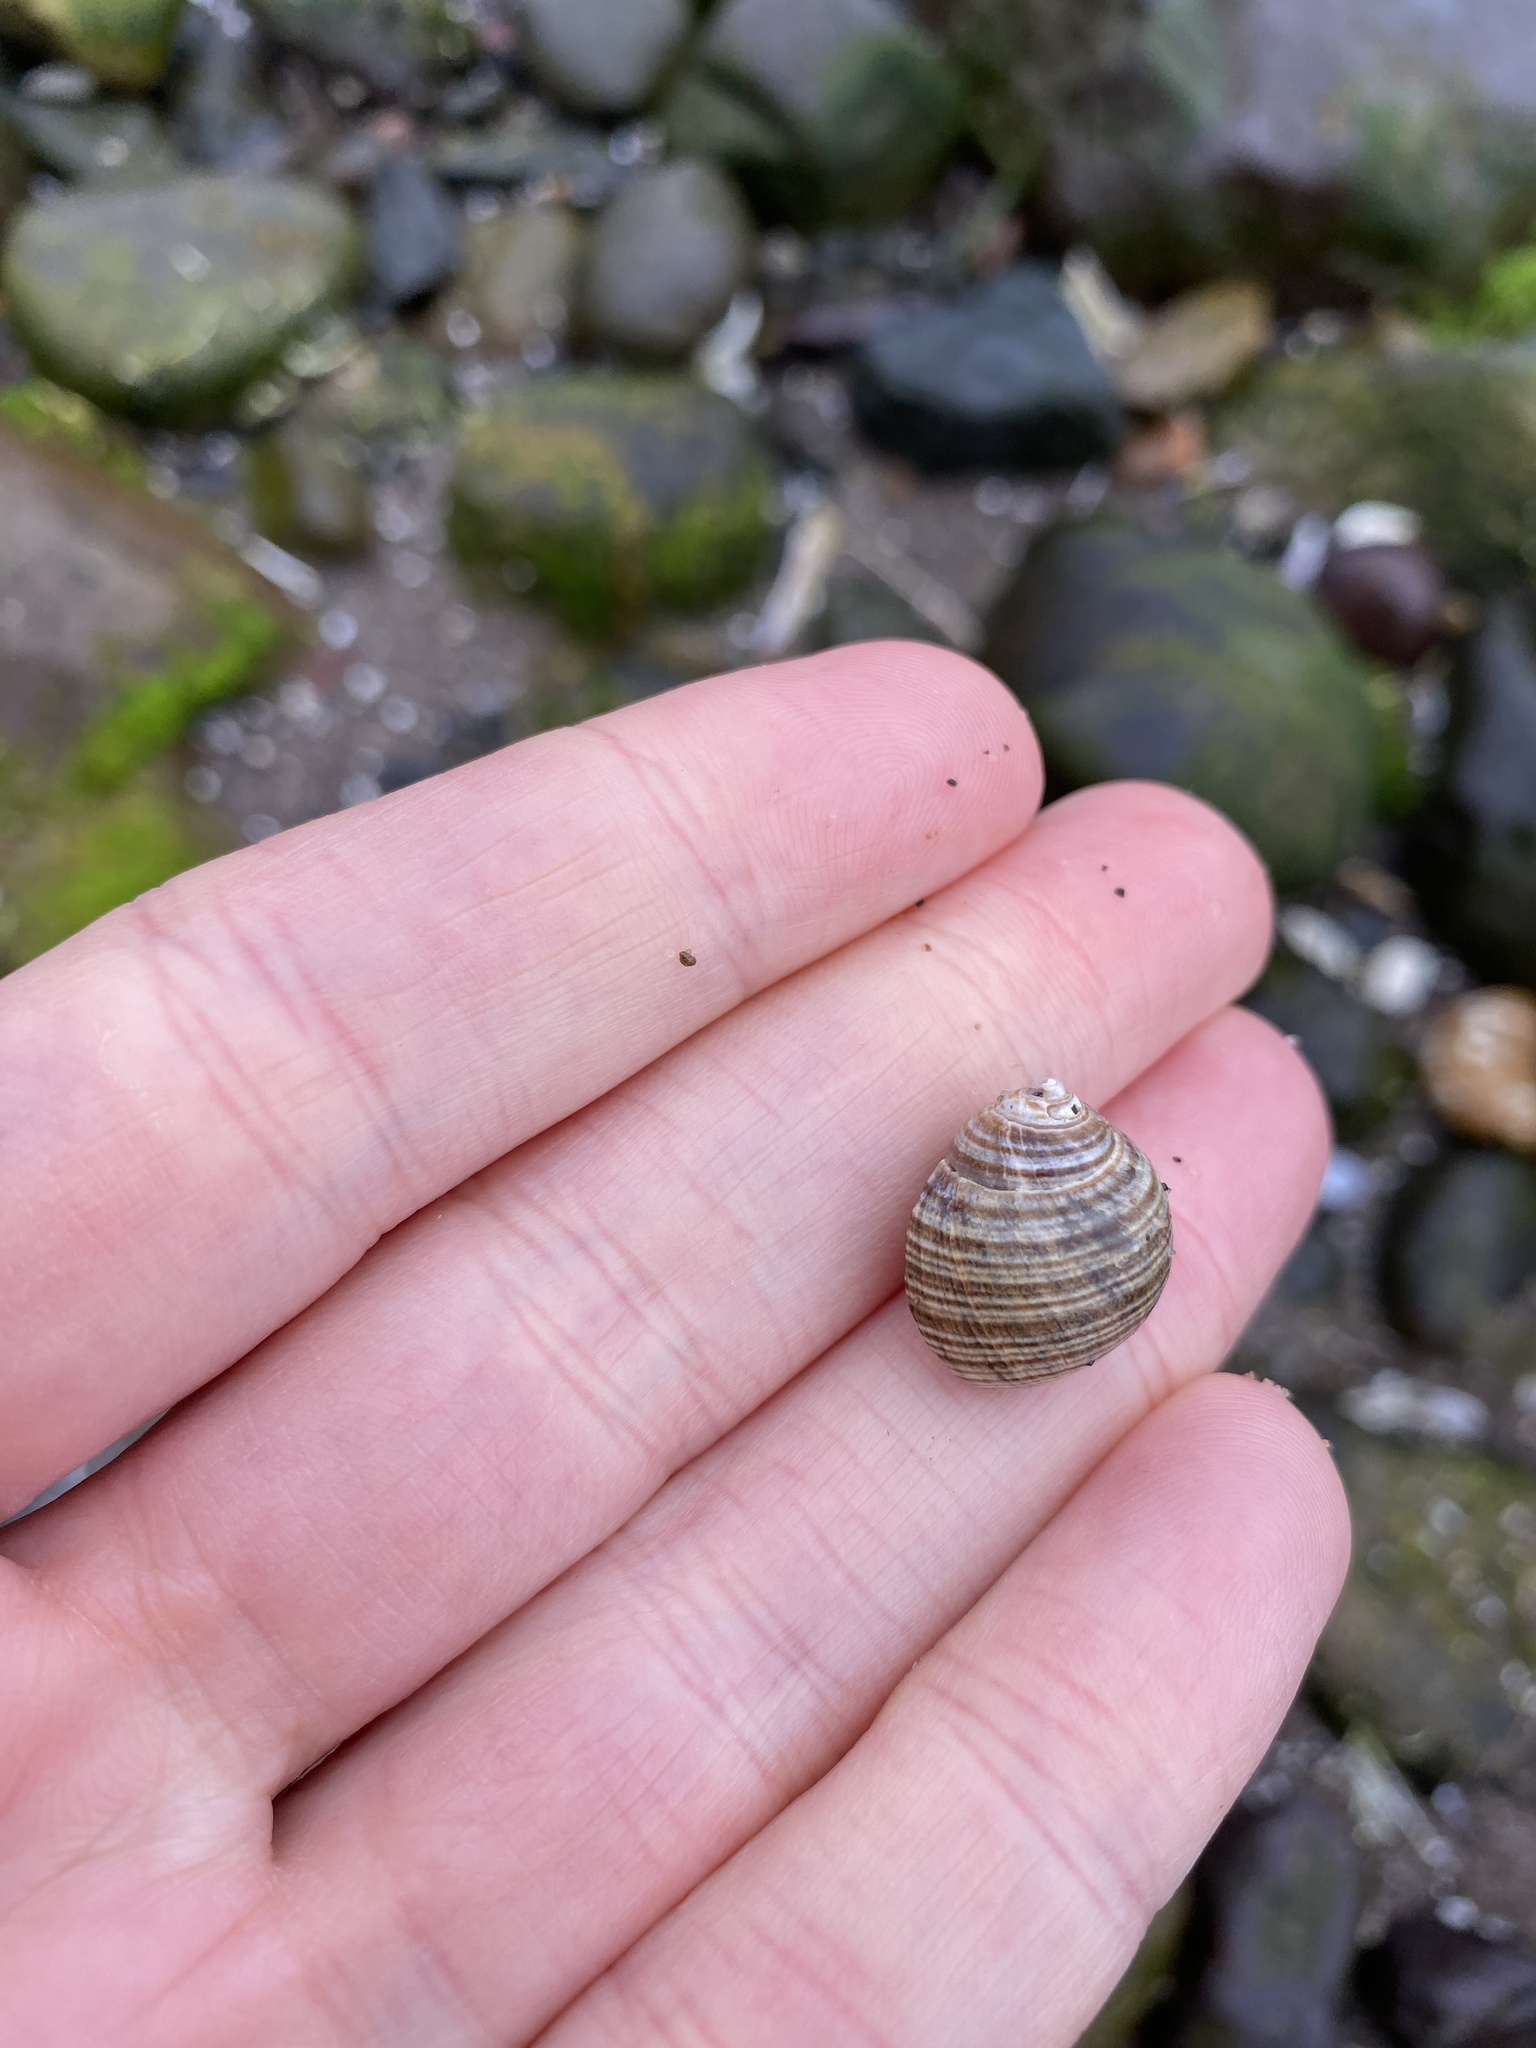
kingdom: Animalia
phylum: Mollusca
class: Gastropoda
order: Littorinimorpha
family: Littorinidae
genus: Littorina
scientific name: Littorina littorea
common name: Common periwinkle
